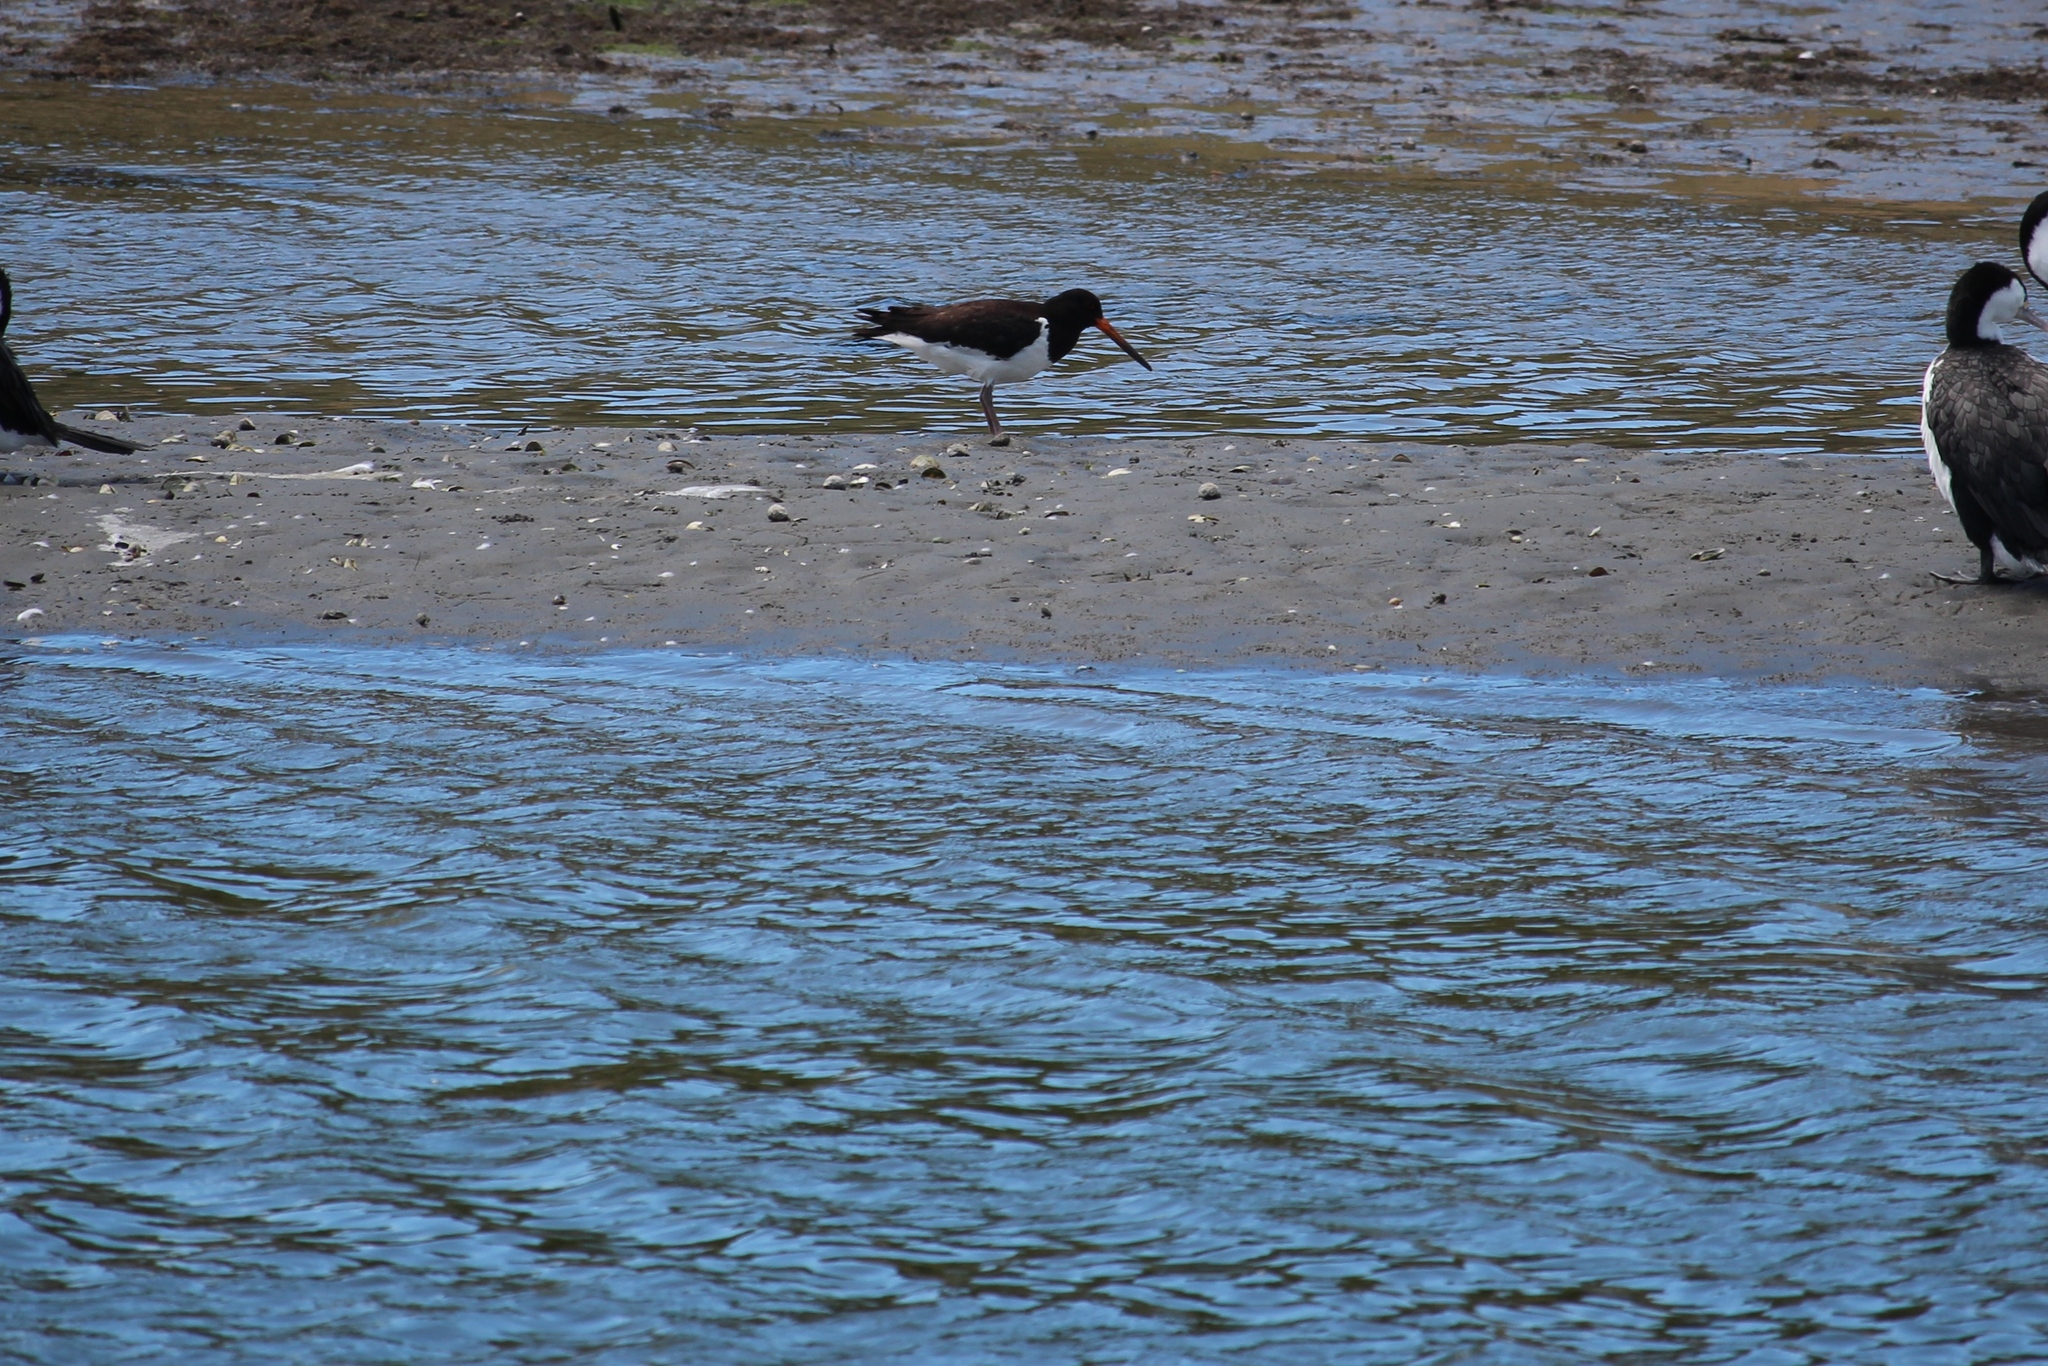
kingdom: Animalia
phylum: Chordata
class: Aves
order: Charadriiformes
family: Haematopodidae
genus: Haematopus
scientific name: Haematopus finschi
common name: South island oystercatcher
